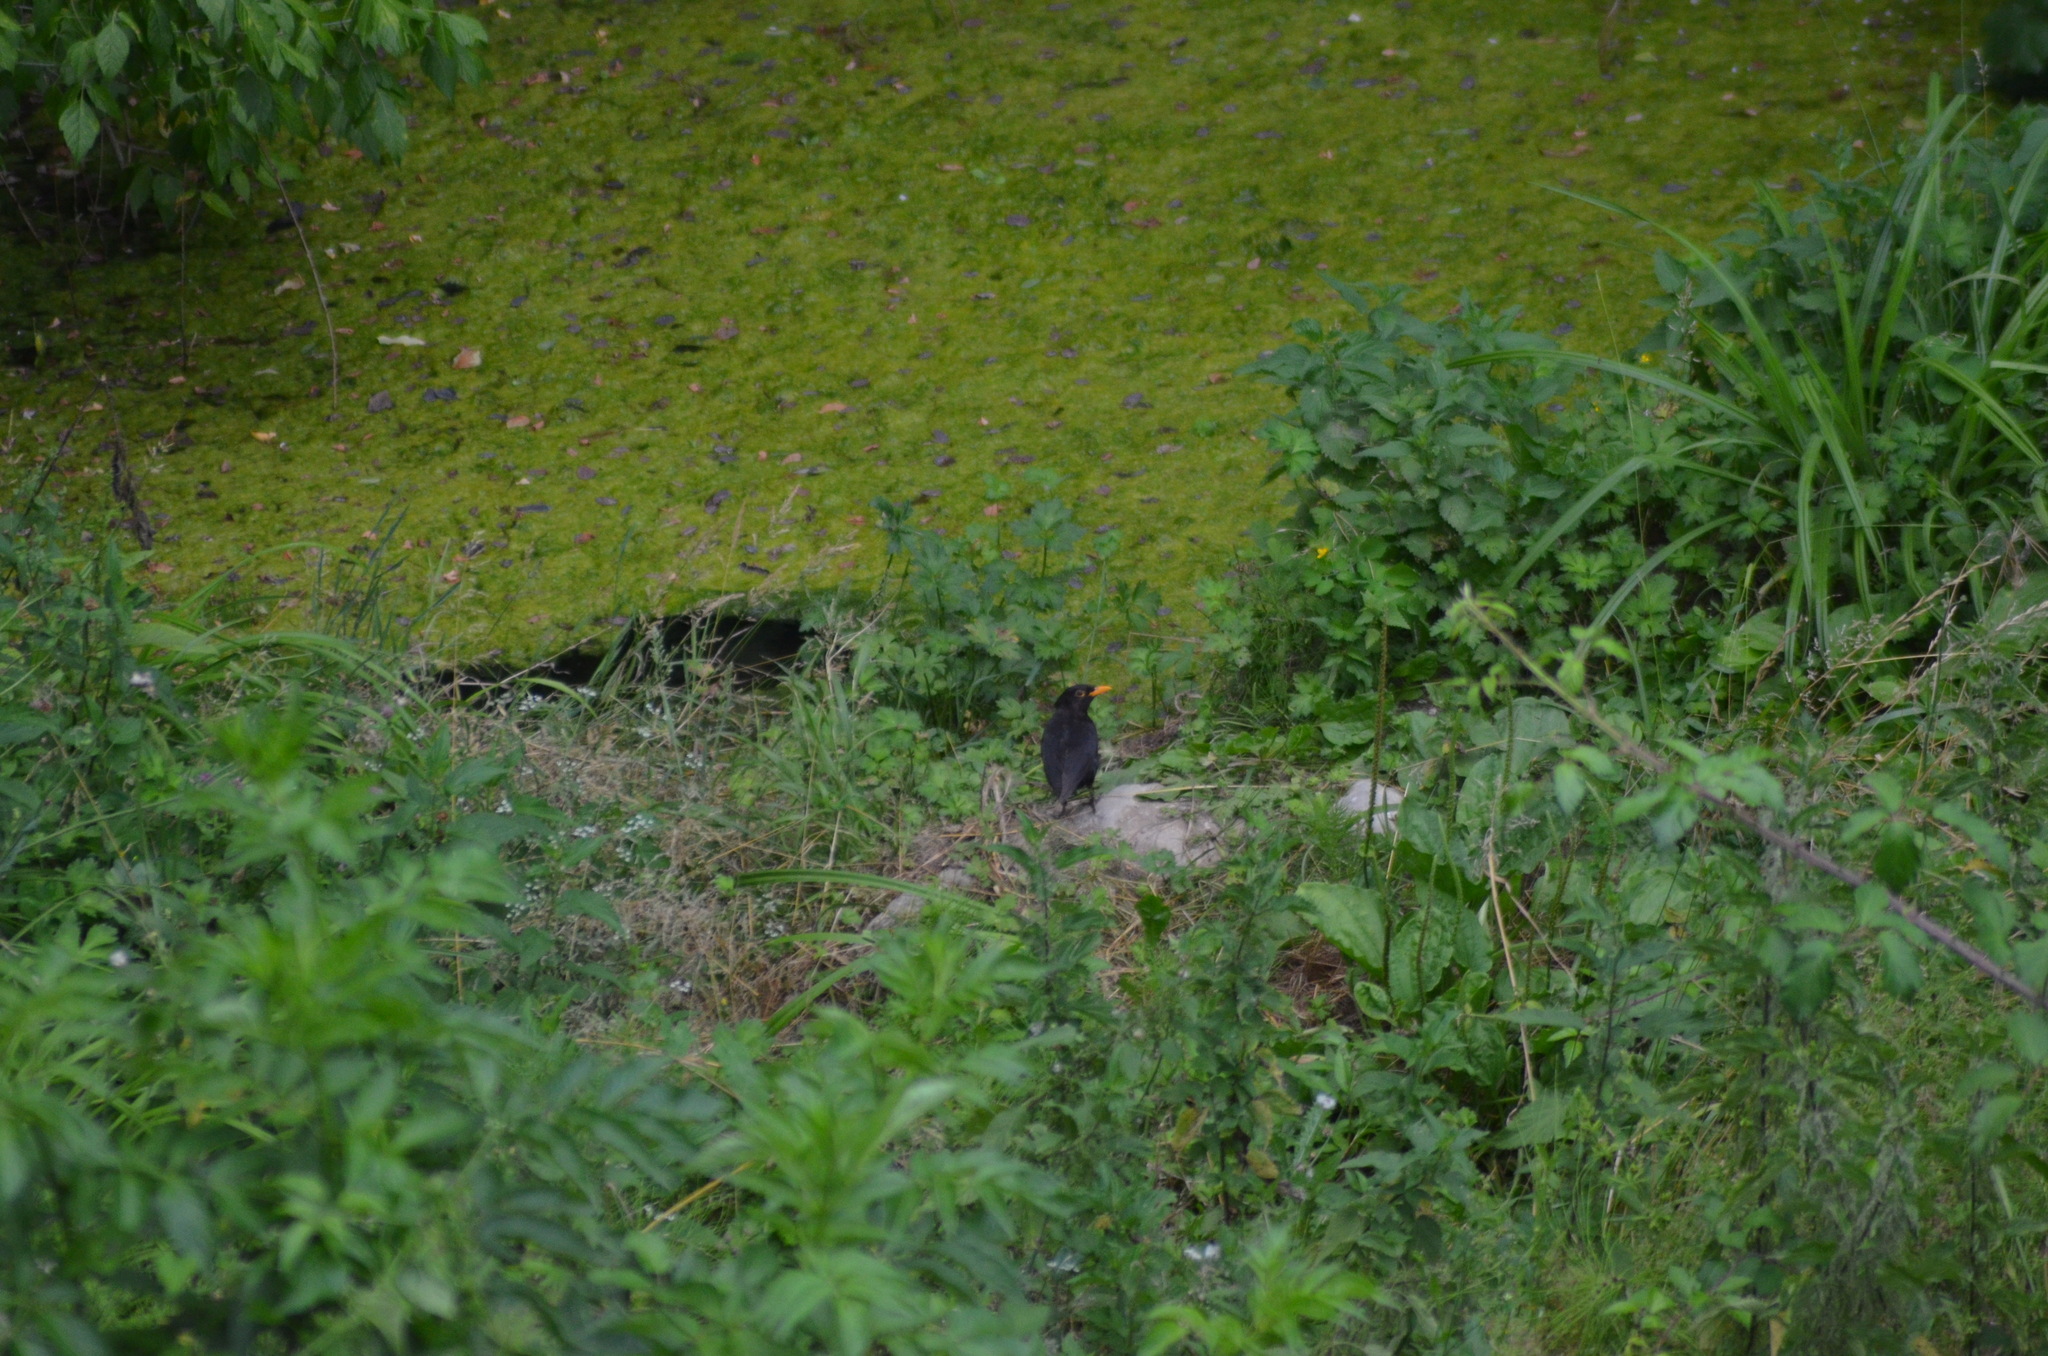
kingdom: Animalia
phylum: Chordata
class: Aves
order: Passeriformes
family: Turdidae
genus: Turdus
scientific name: Turdus merula
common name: Common blackbird
